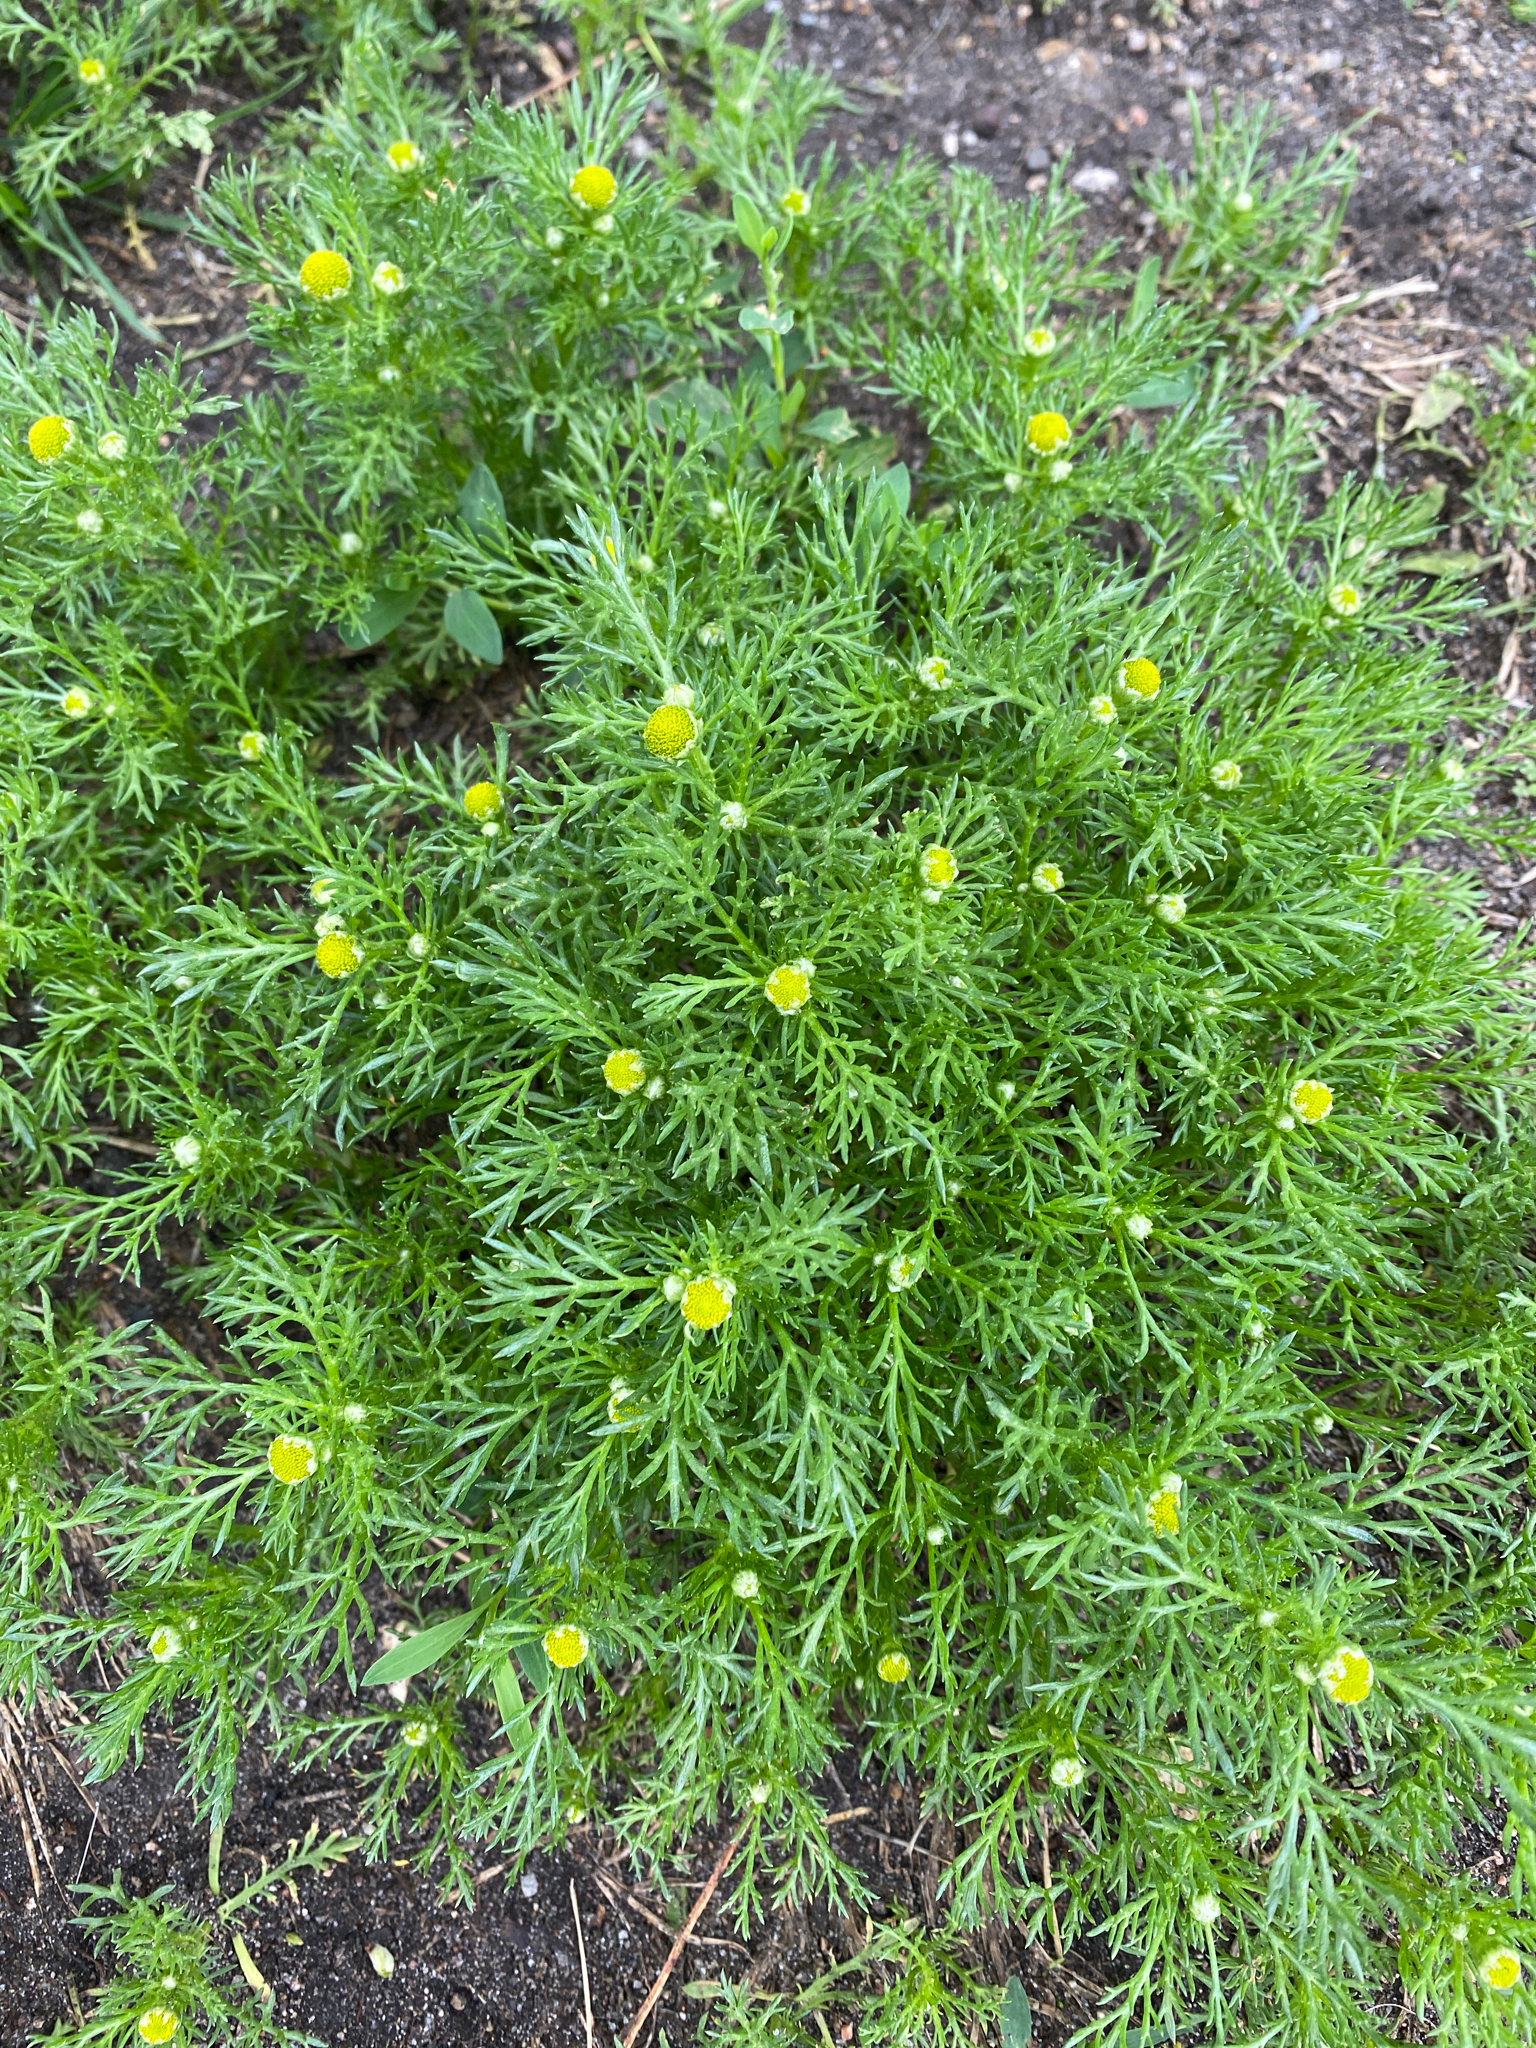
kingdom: Plantae
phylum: Tracheophyta
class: Magnoliopsida
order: Asterales
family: Asteraceae
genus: Matricaria
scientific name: Matricaria discoidea
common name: Disc mayweed
